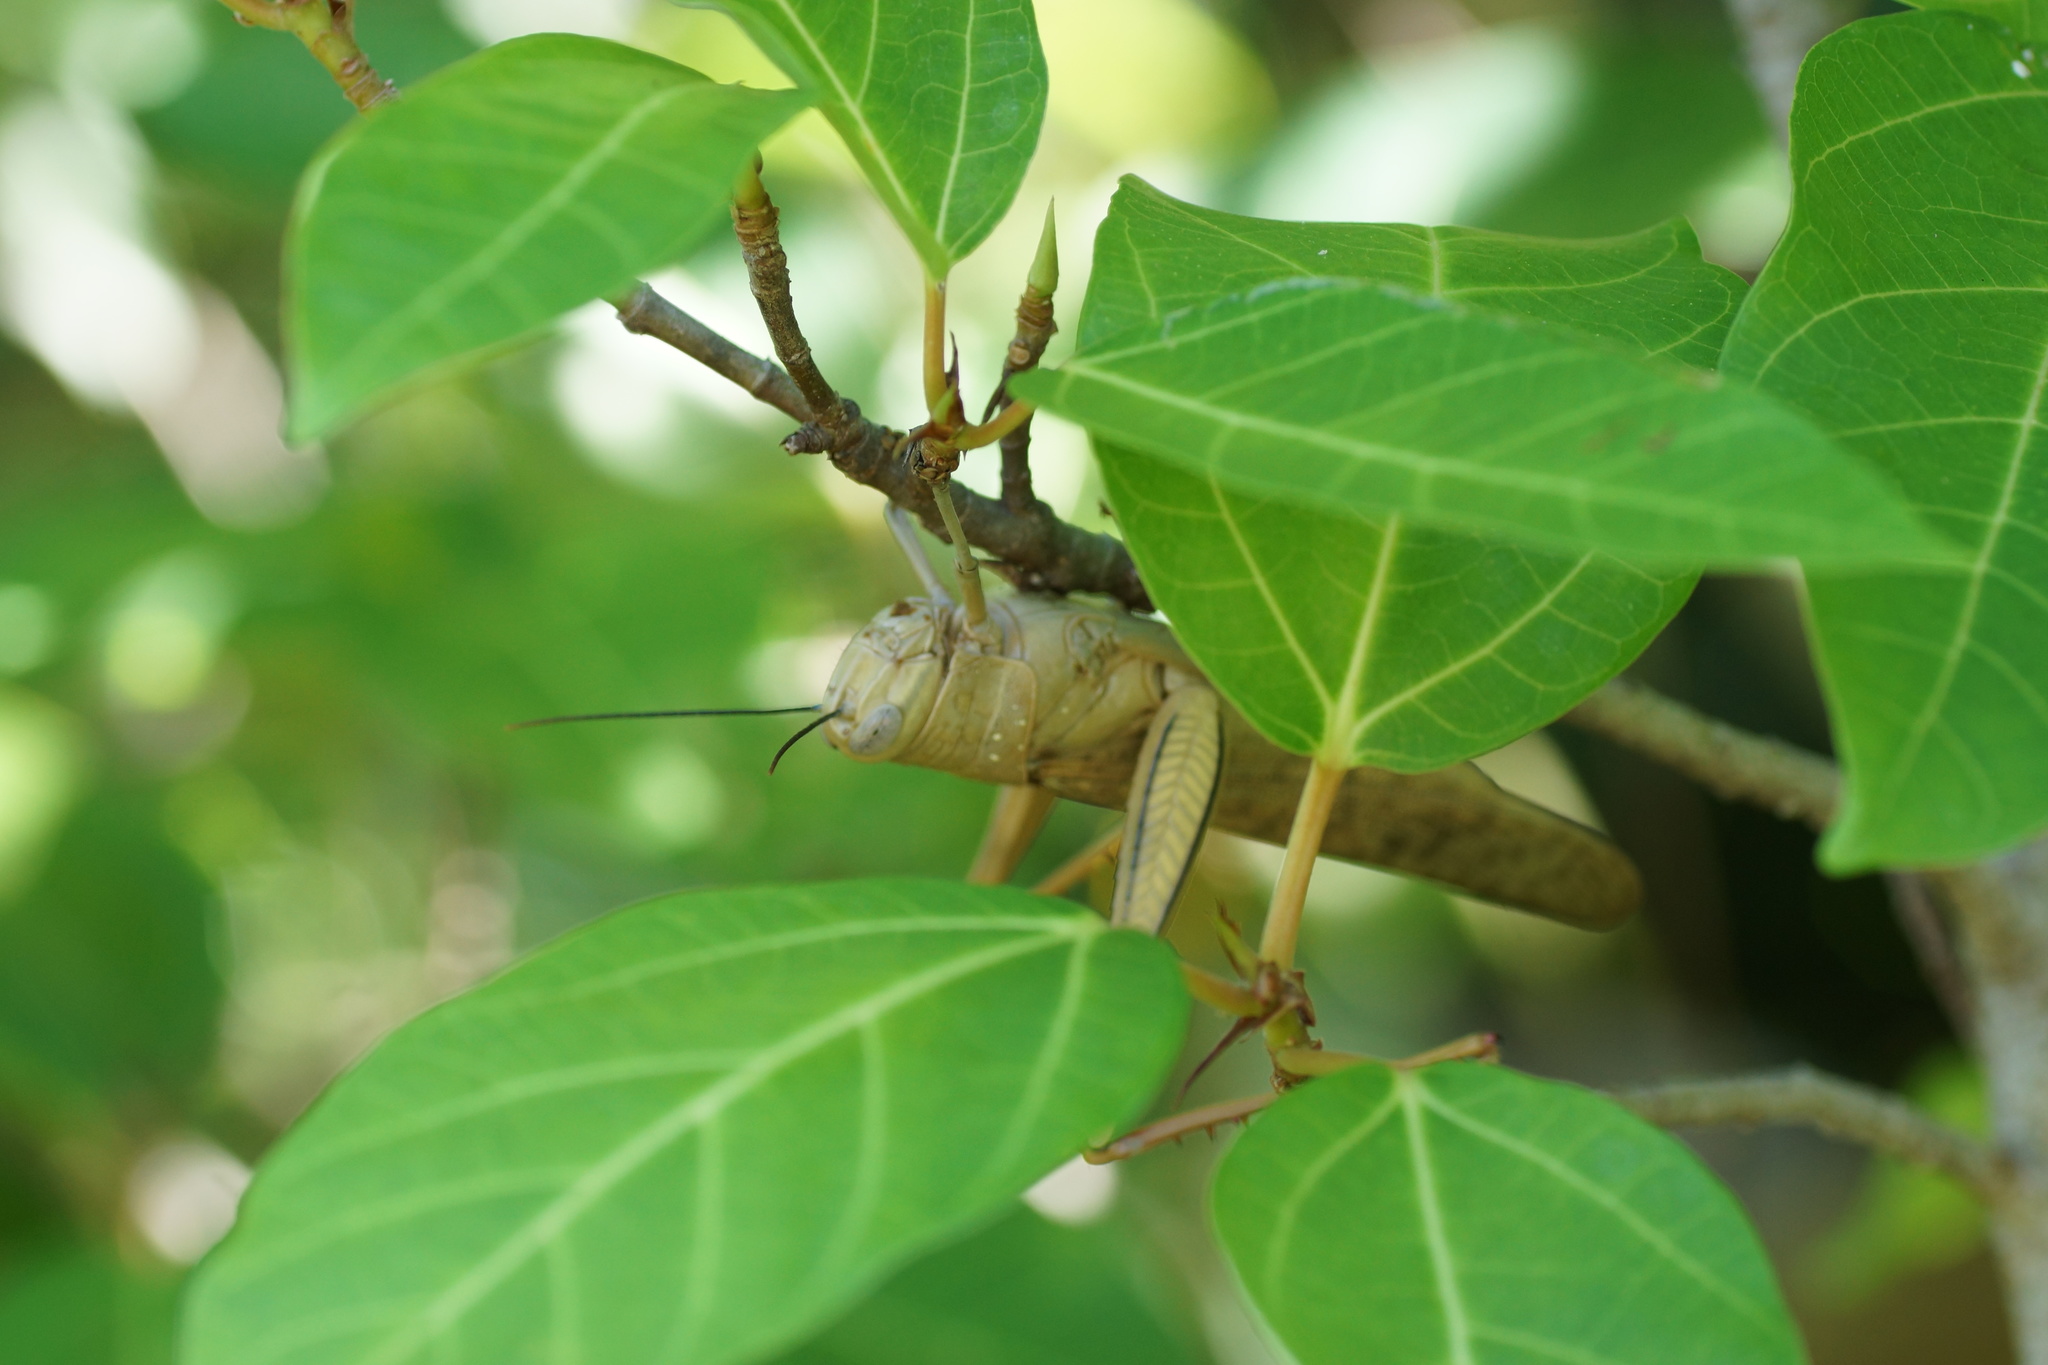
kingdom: Animalia
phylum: Arthropoda
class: Insecta
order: Orthoptera
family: Acrididae
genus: Valanga
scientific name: Valanga irregularis
